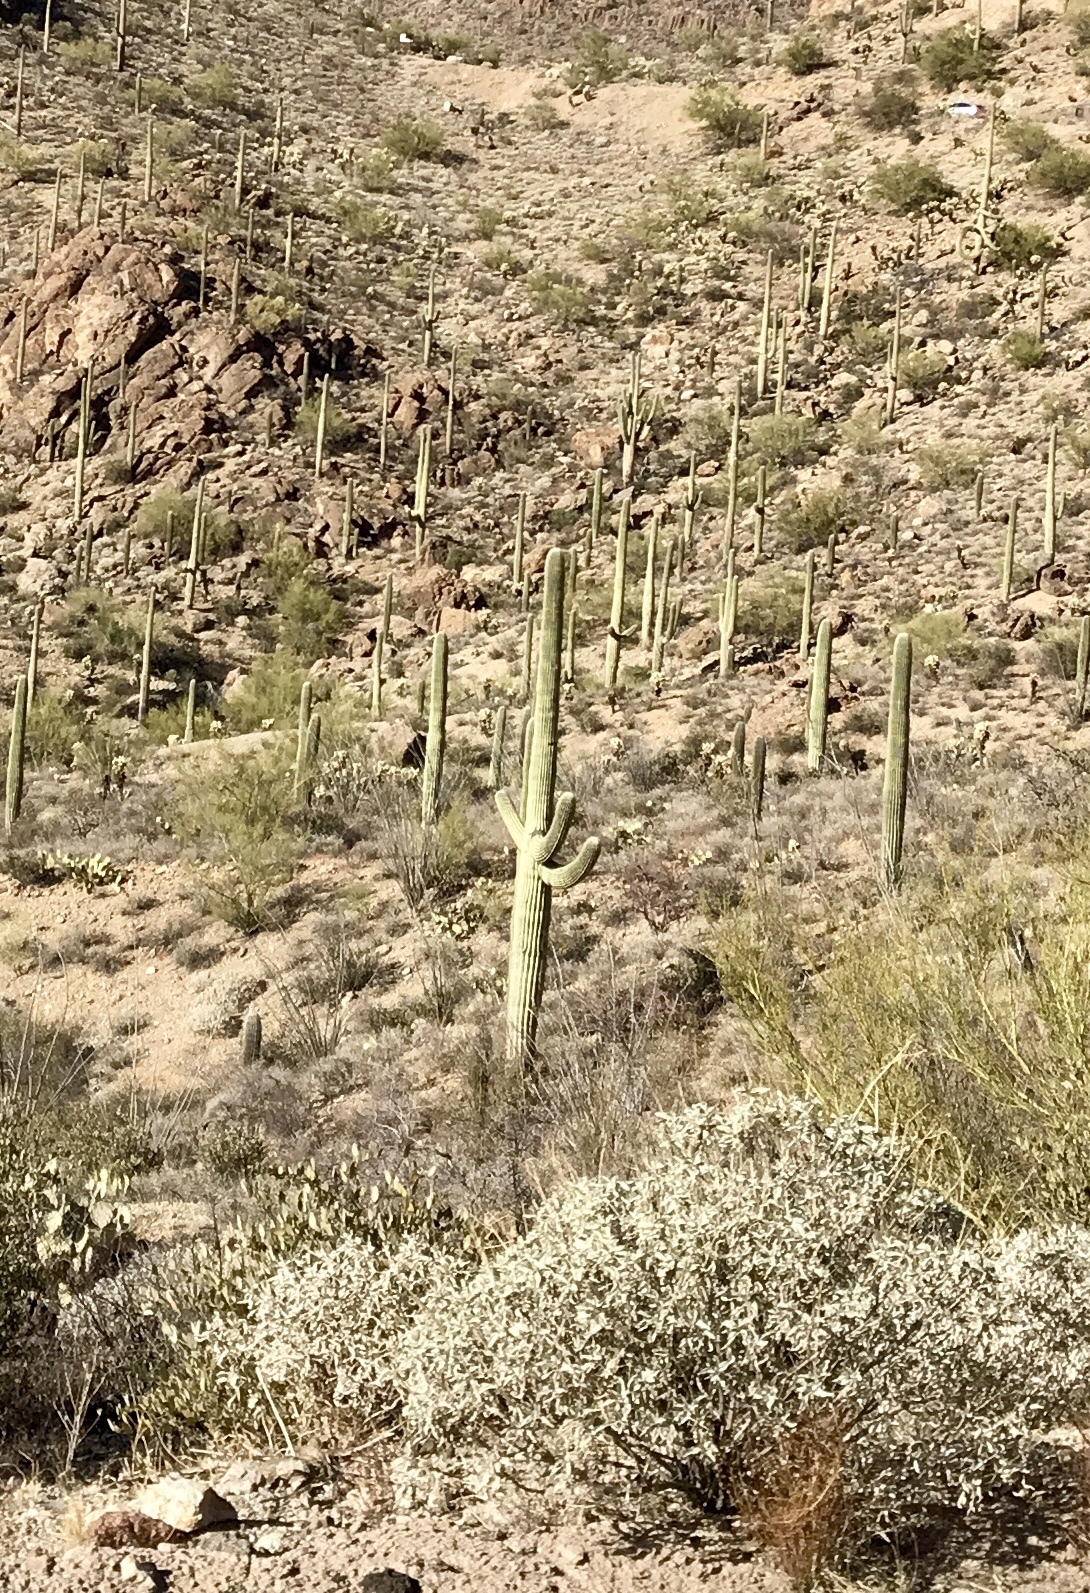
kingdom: Plantae
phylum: Tracheophyta
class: Magnoliopsida
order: Caryophyllales
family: Cactaceae
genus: Carnegiea
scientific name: Carnegiea gigantea
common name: Saguaro
